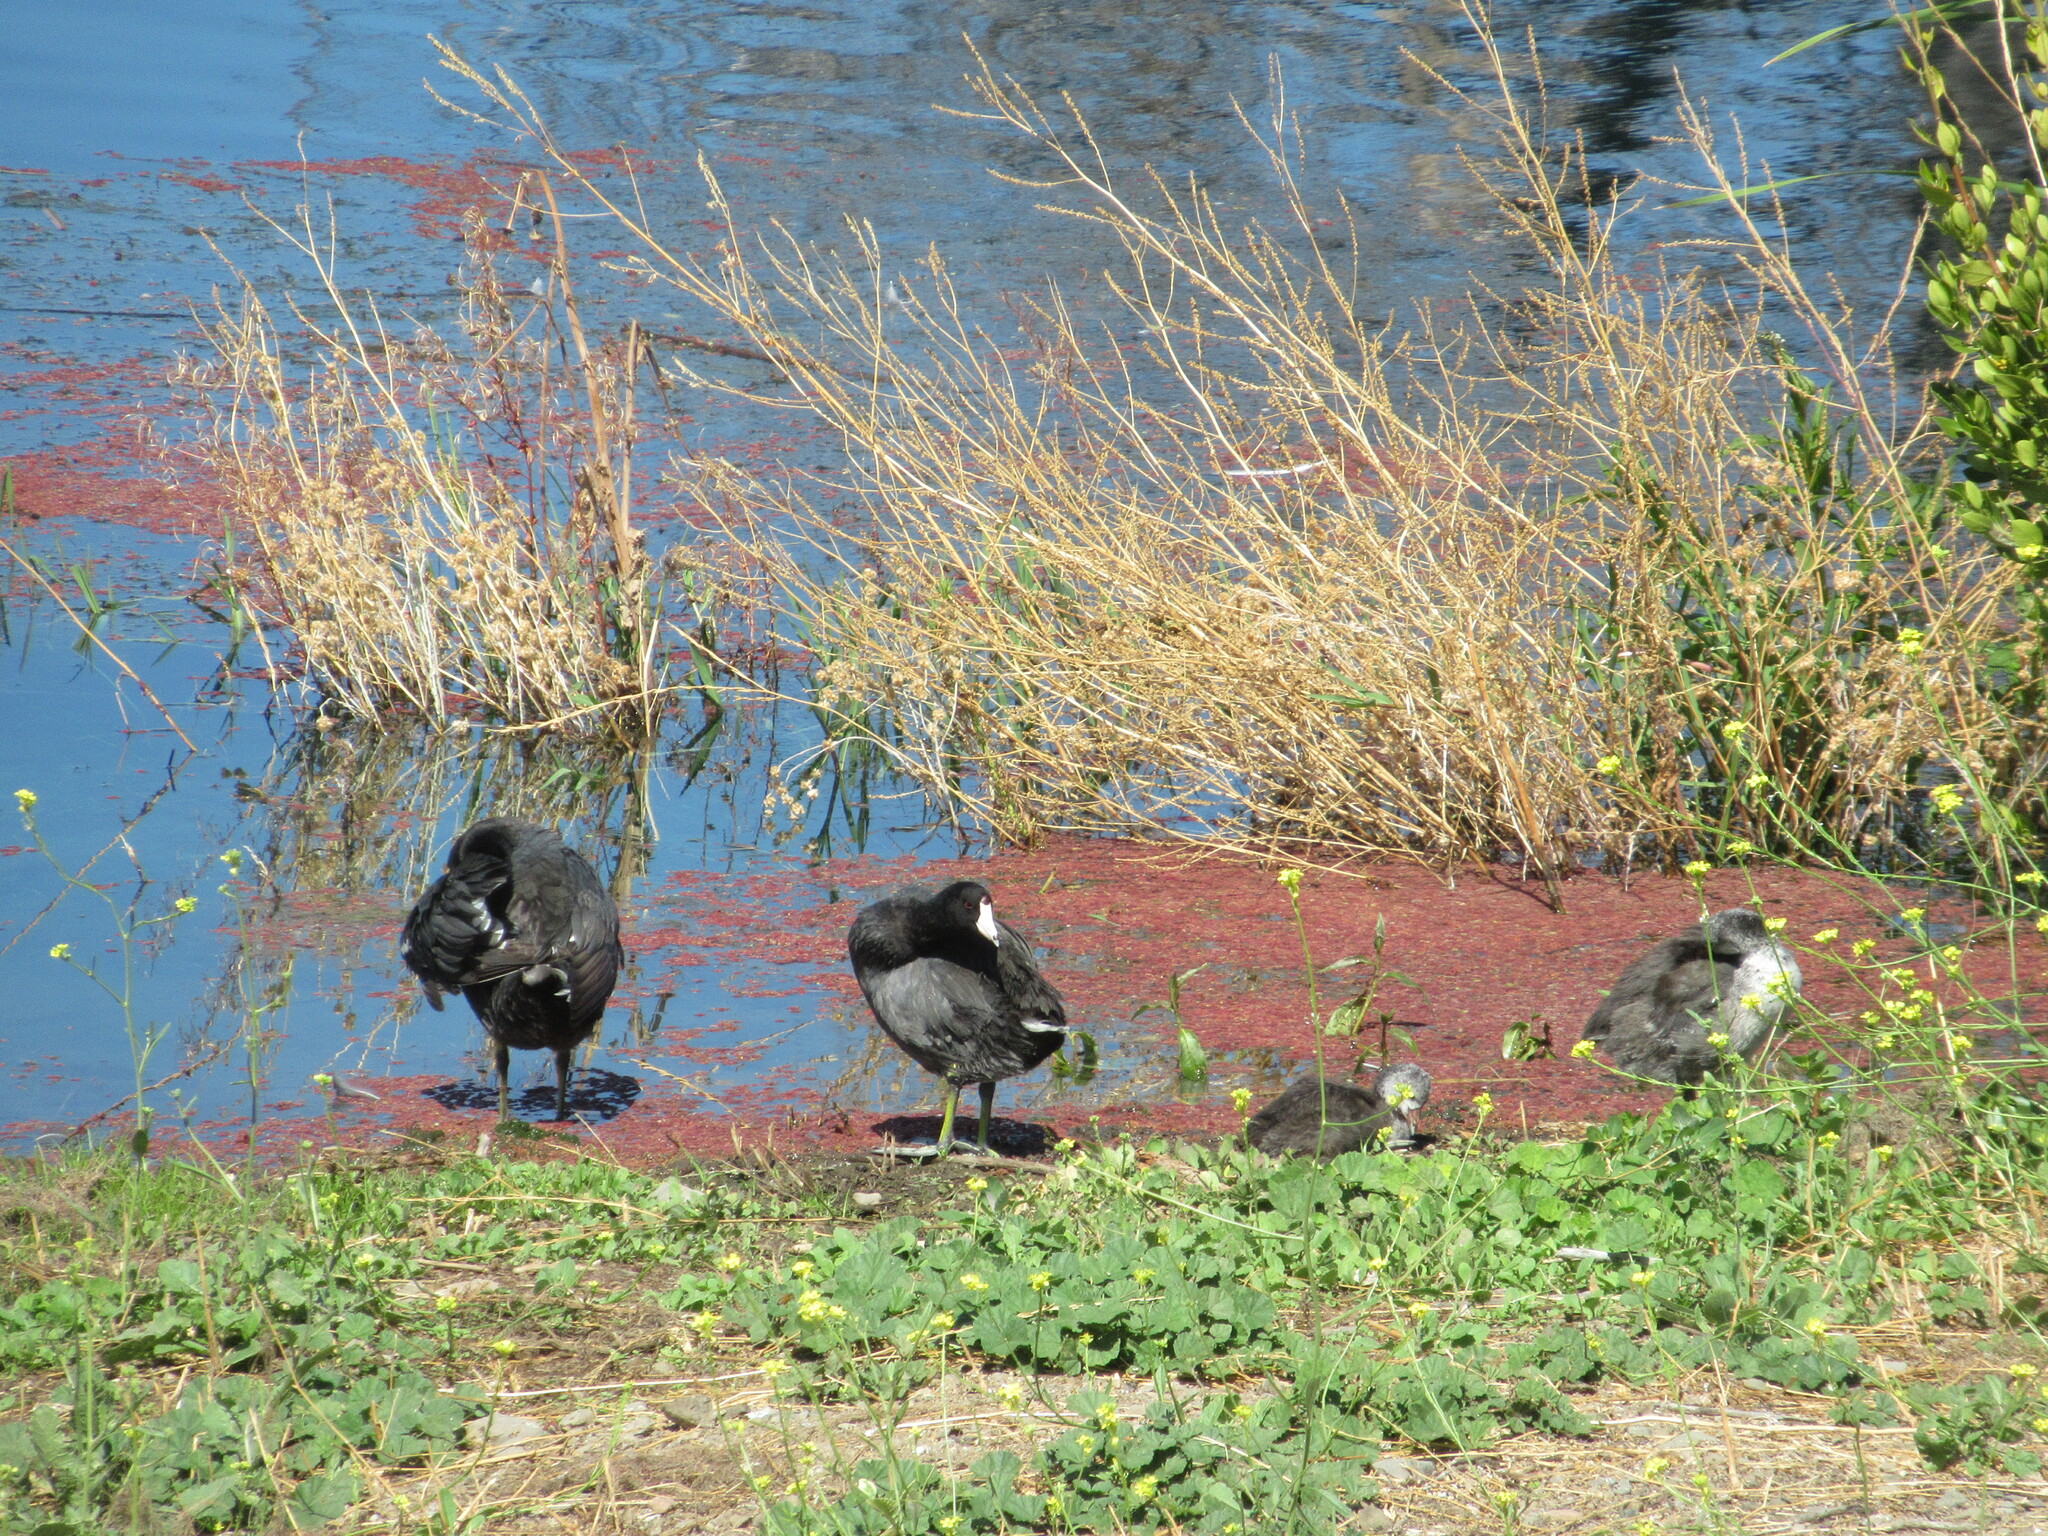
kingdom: Animalia
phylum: Chordata
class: Aves
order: Gruiformes
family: Rallidae
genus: Fulica
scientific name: Fulica americana
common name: American coot
